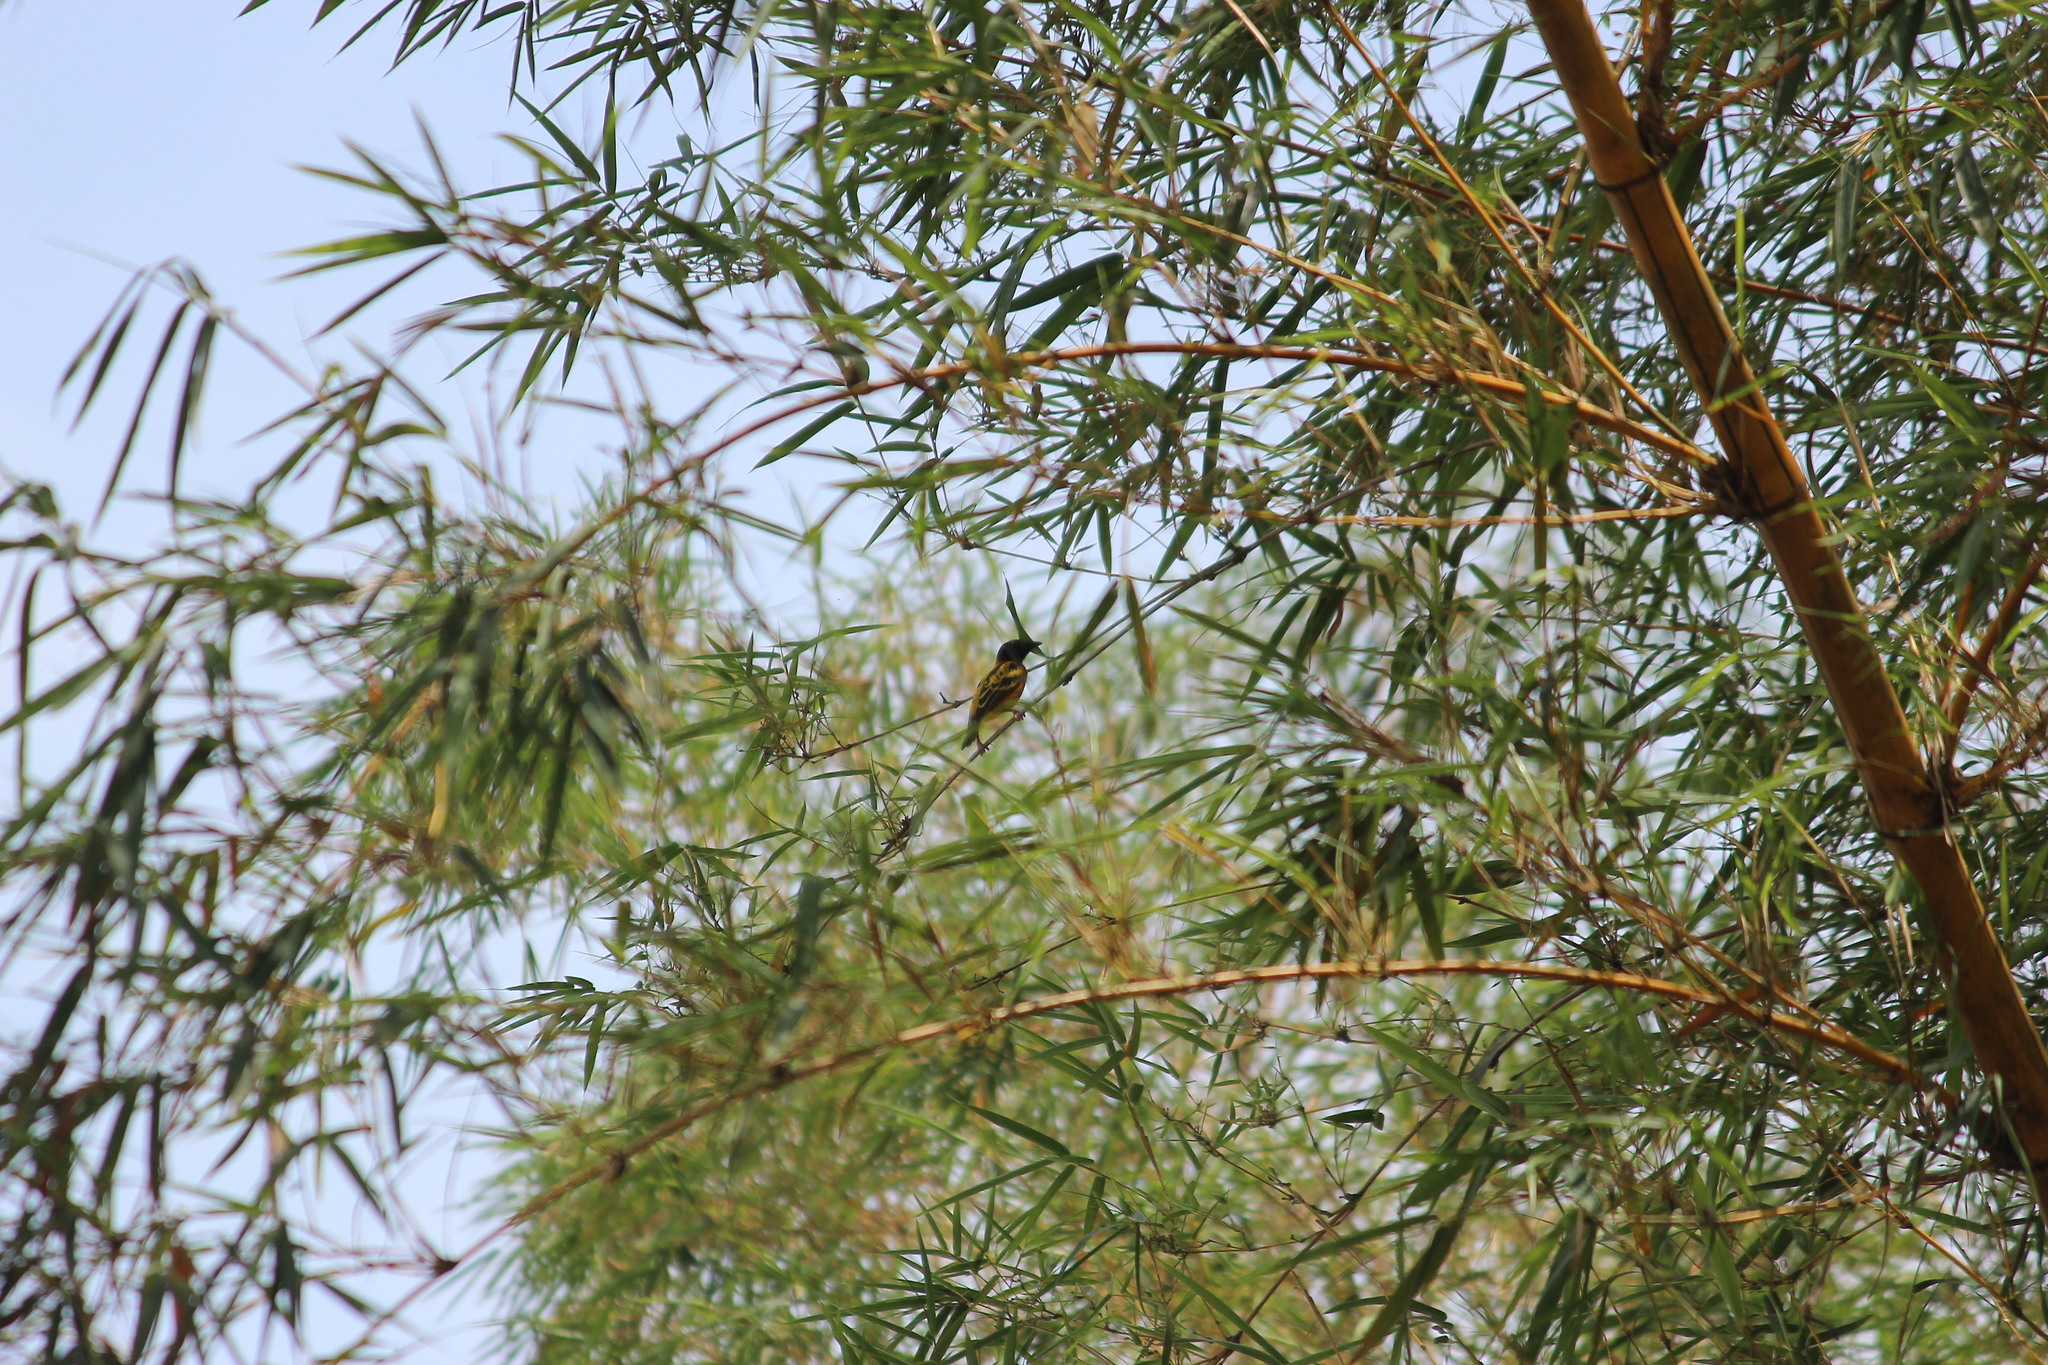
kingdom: Animalia
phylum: Chordata
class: Aves
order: Passeriformes
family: Ploceidae
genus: Ploceus
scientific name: Ploceus cucullatus
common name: Village weaver
